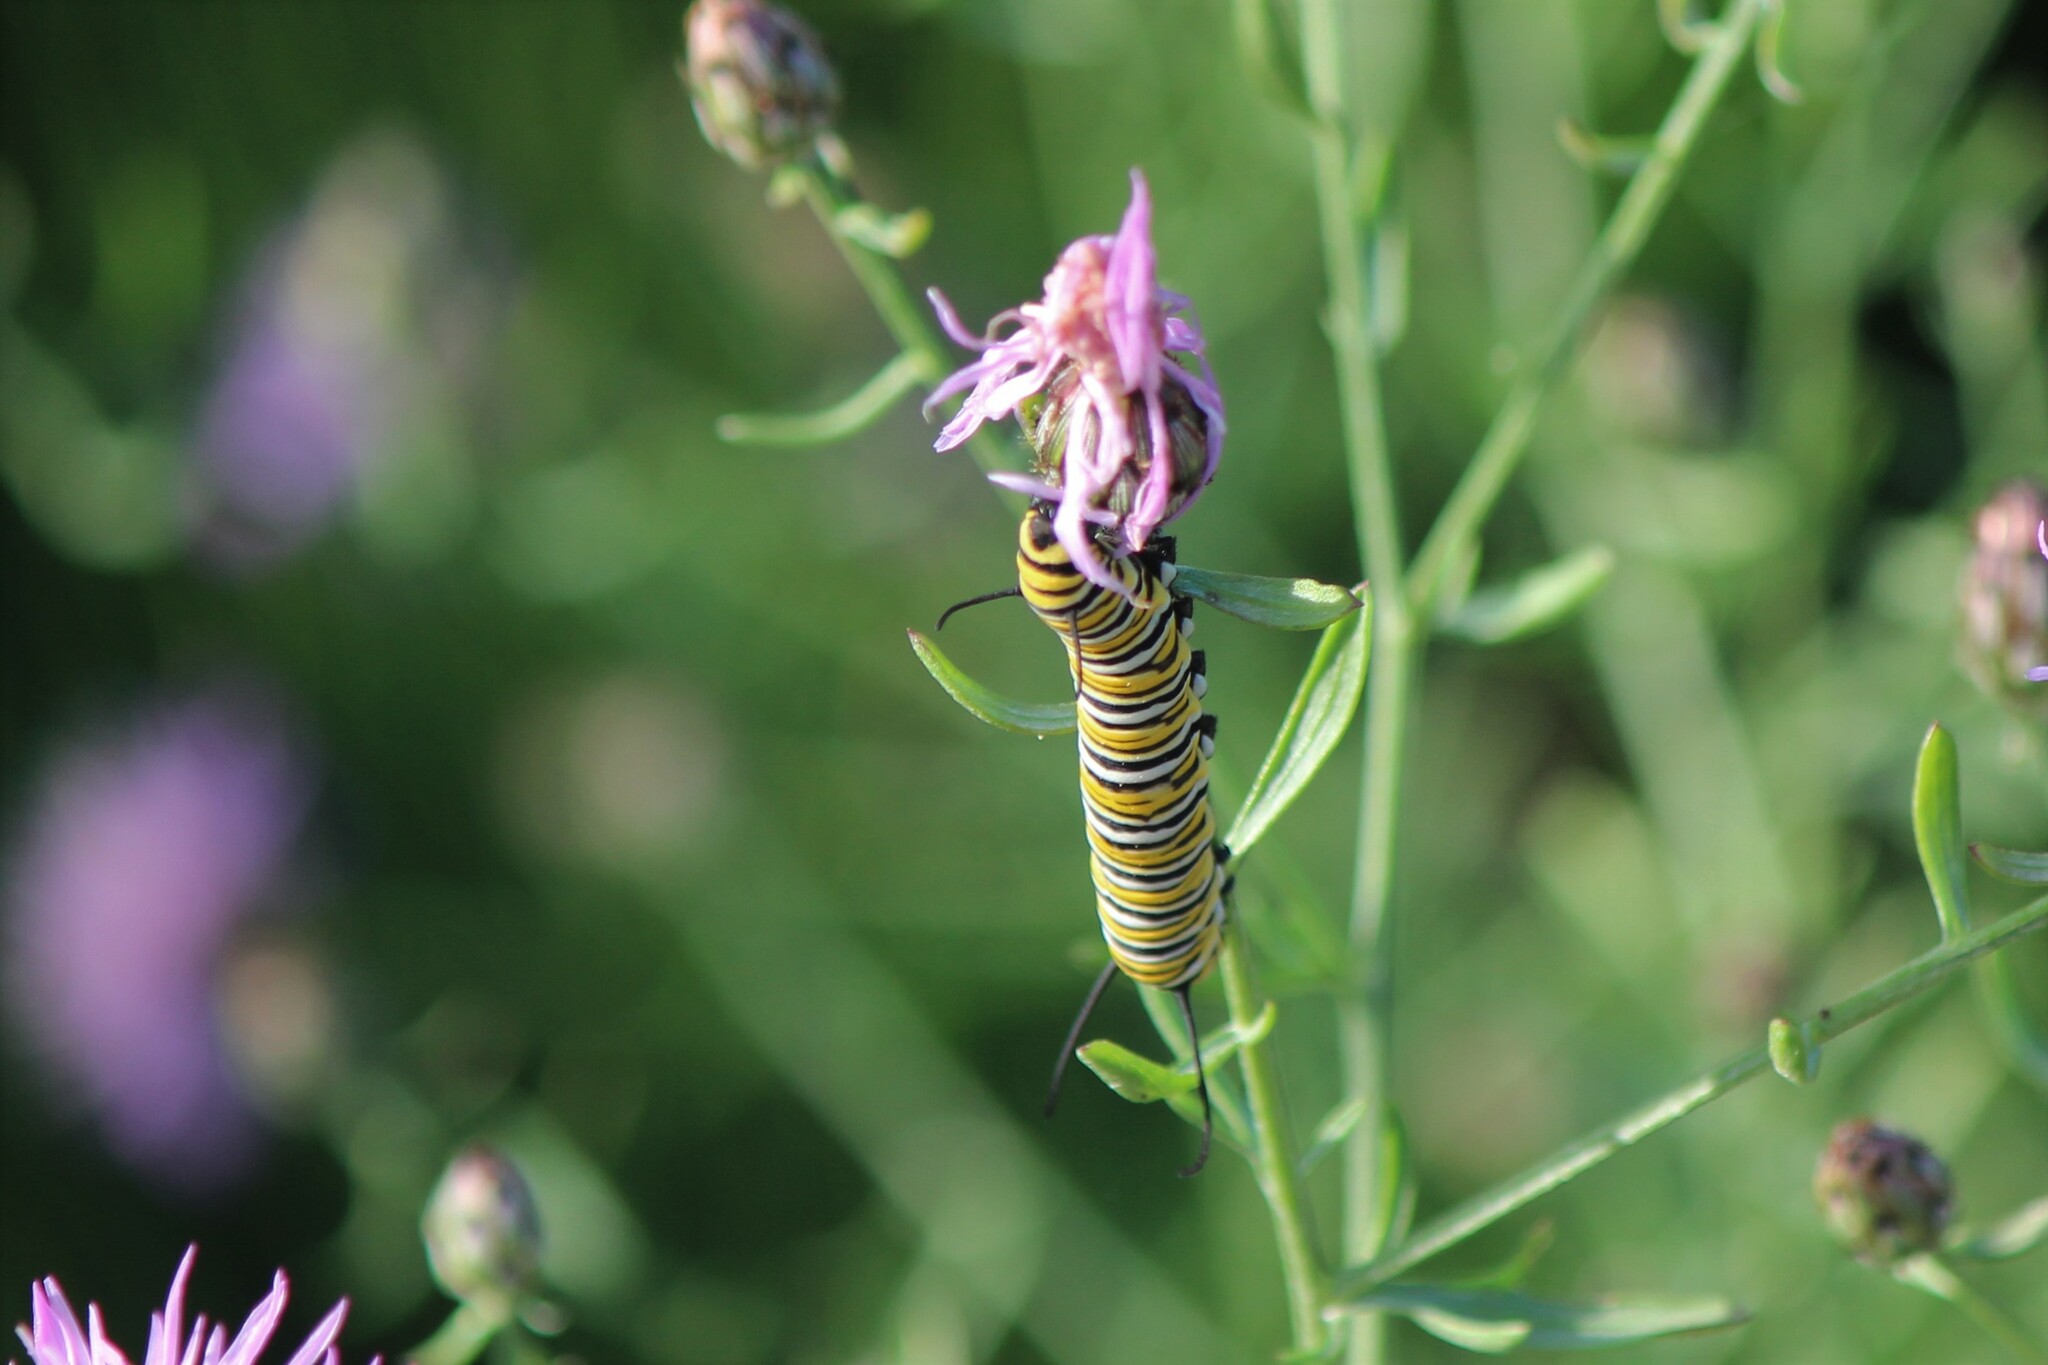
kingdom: Animalia
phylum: Arthropoda
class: Insecta
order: Lepidoptera
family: Nymphalidae
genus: Danaus
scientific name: Danaus plexippus
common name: Monarch
